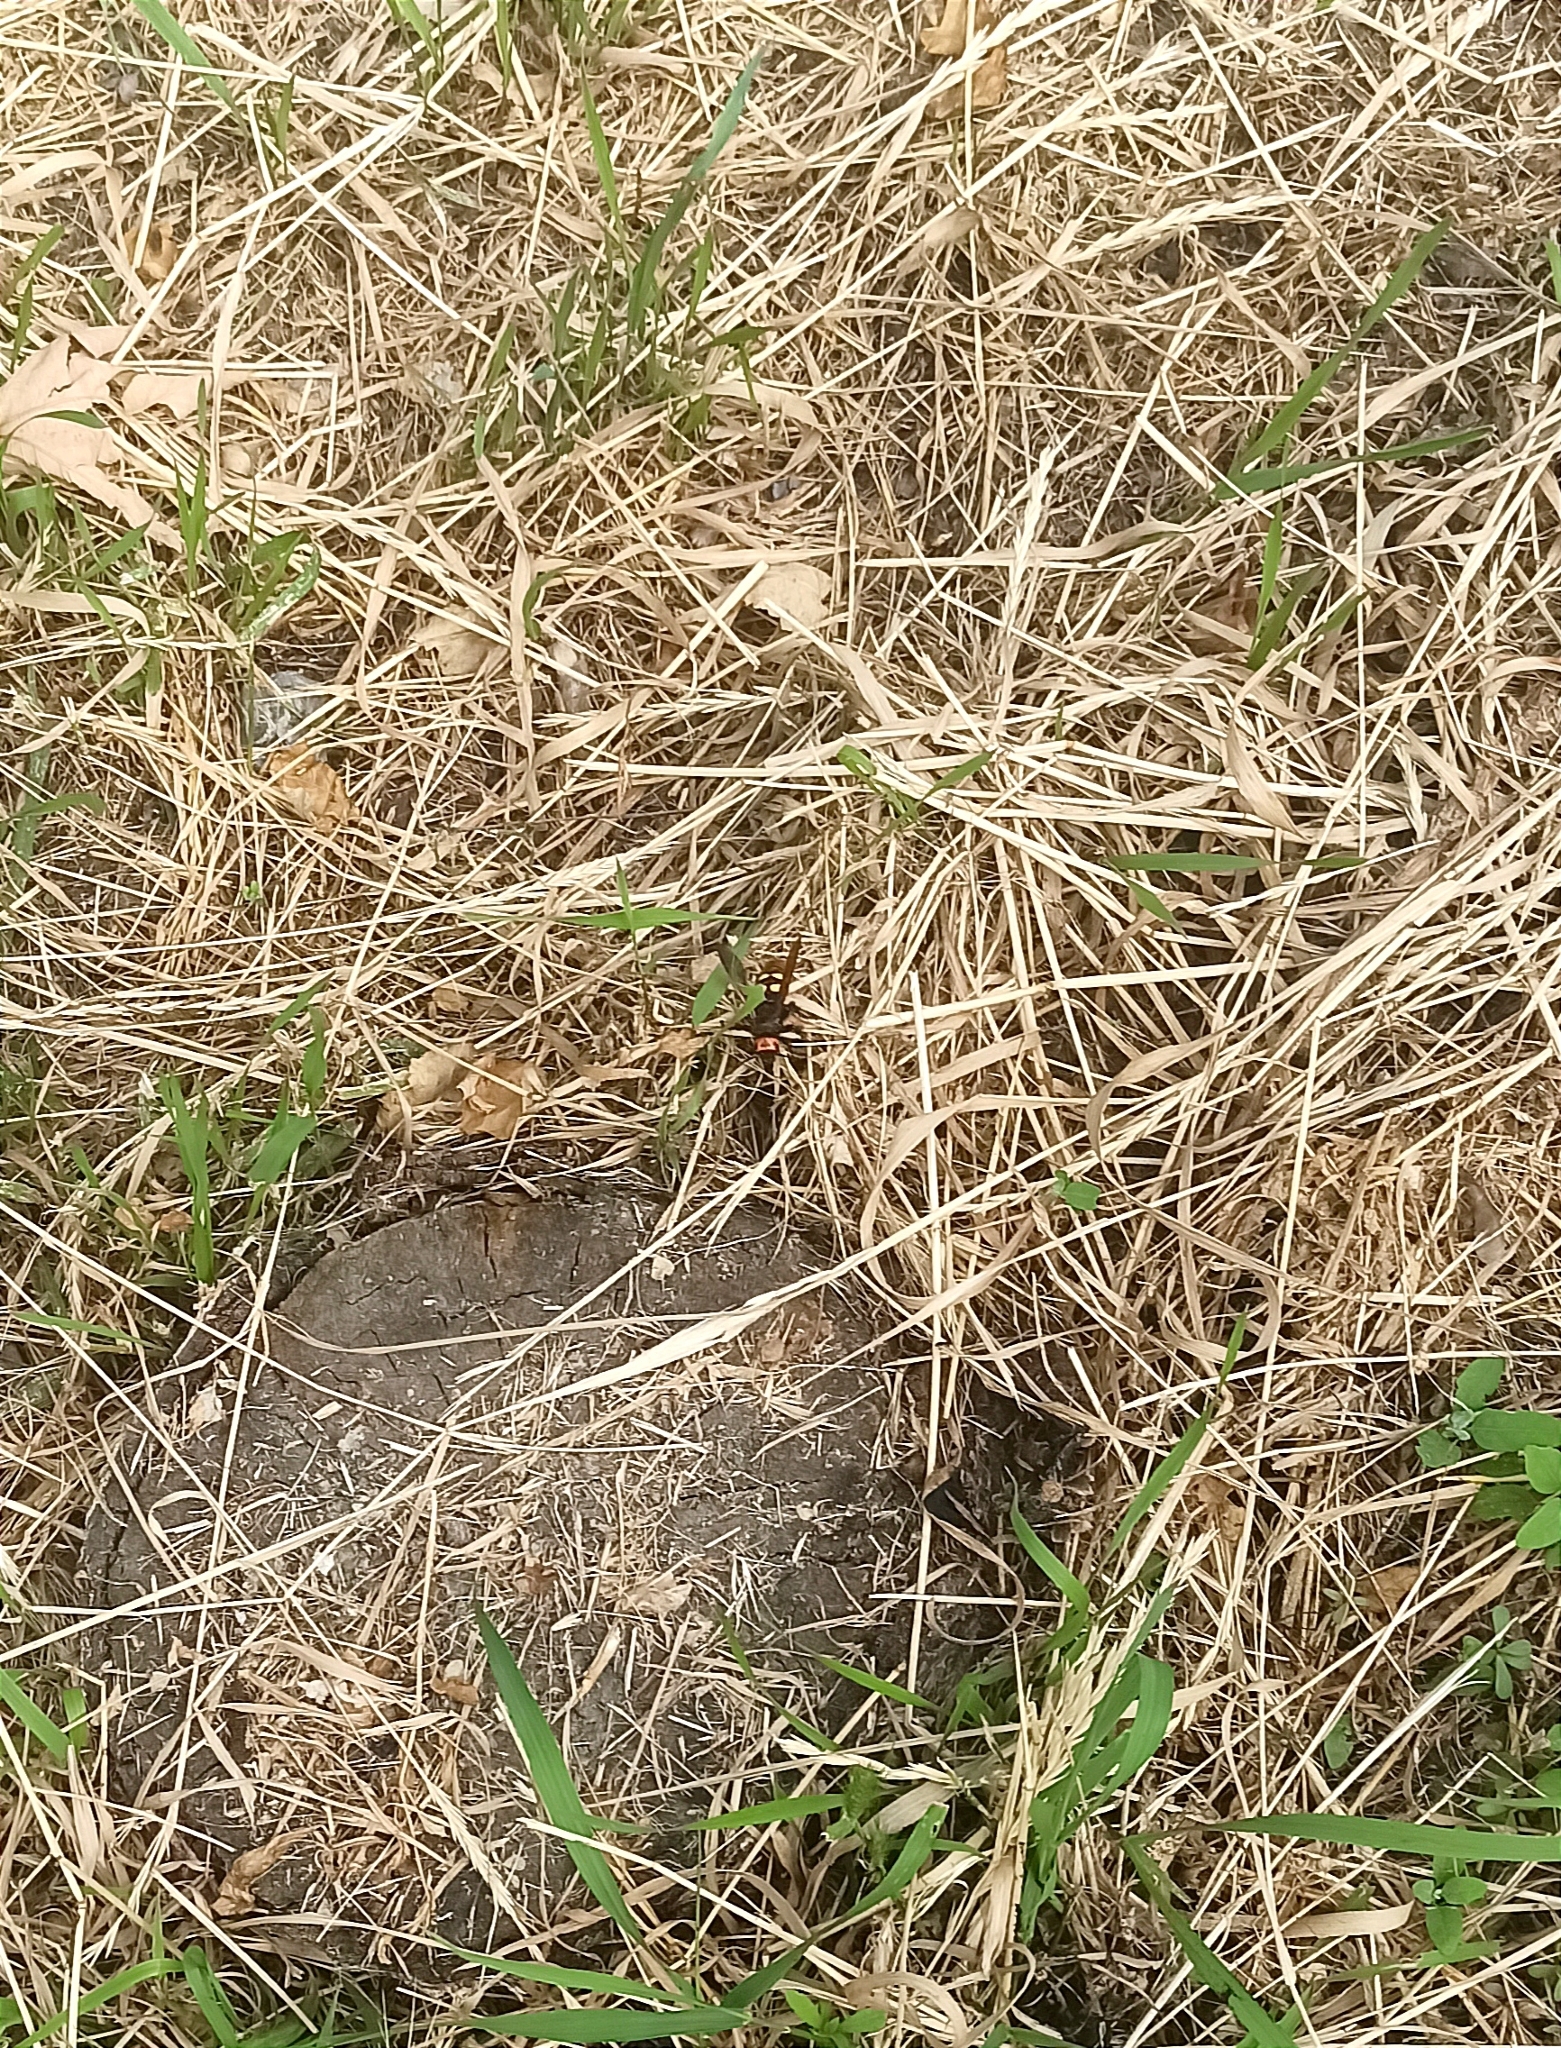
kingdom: Animalia
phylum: Arthropoda
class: Insecta
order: Hymenoptera
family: Scoliidae
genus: Megascolia
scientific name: Megascolia maculata
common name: Mammoth wasp
